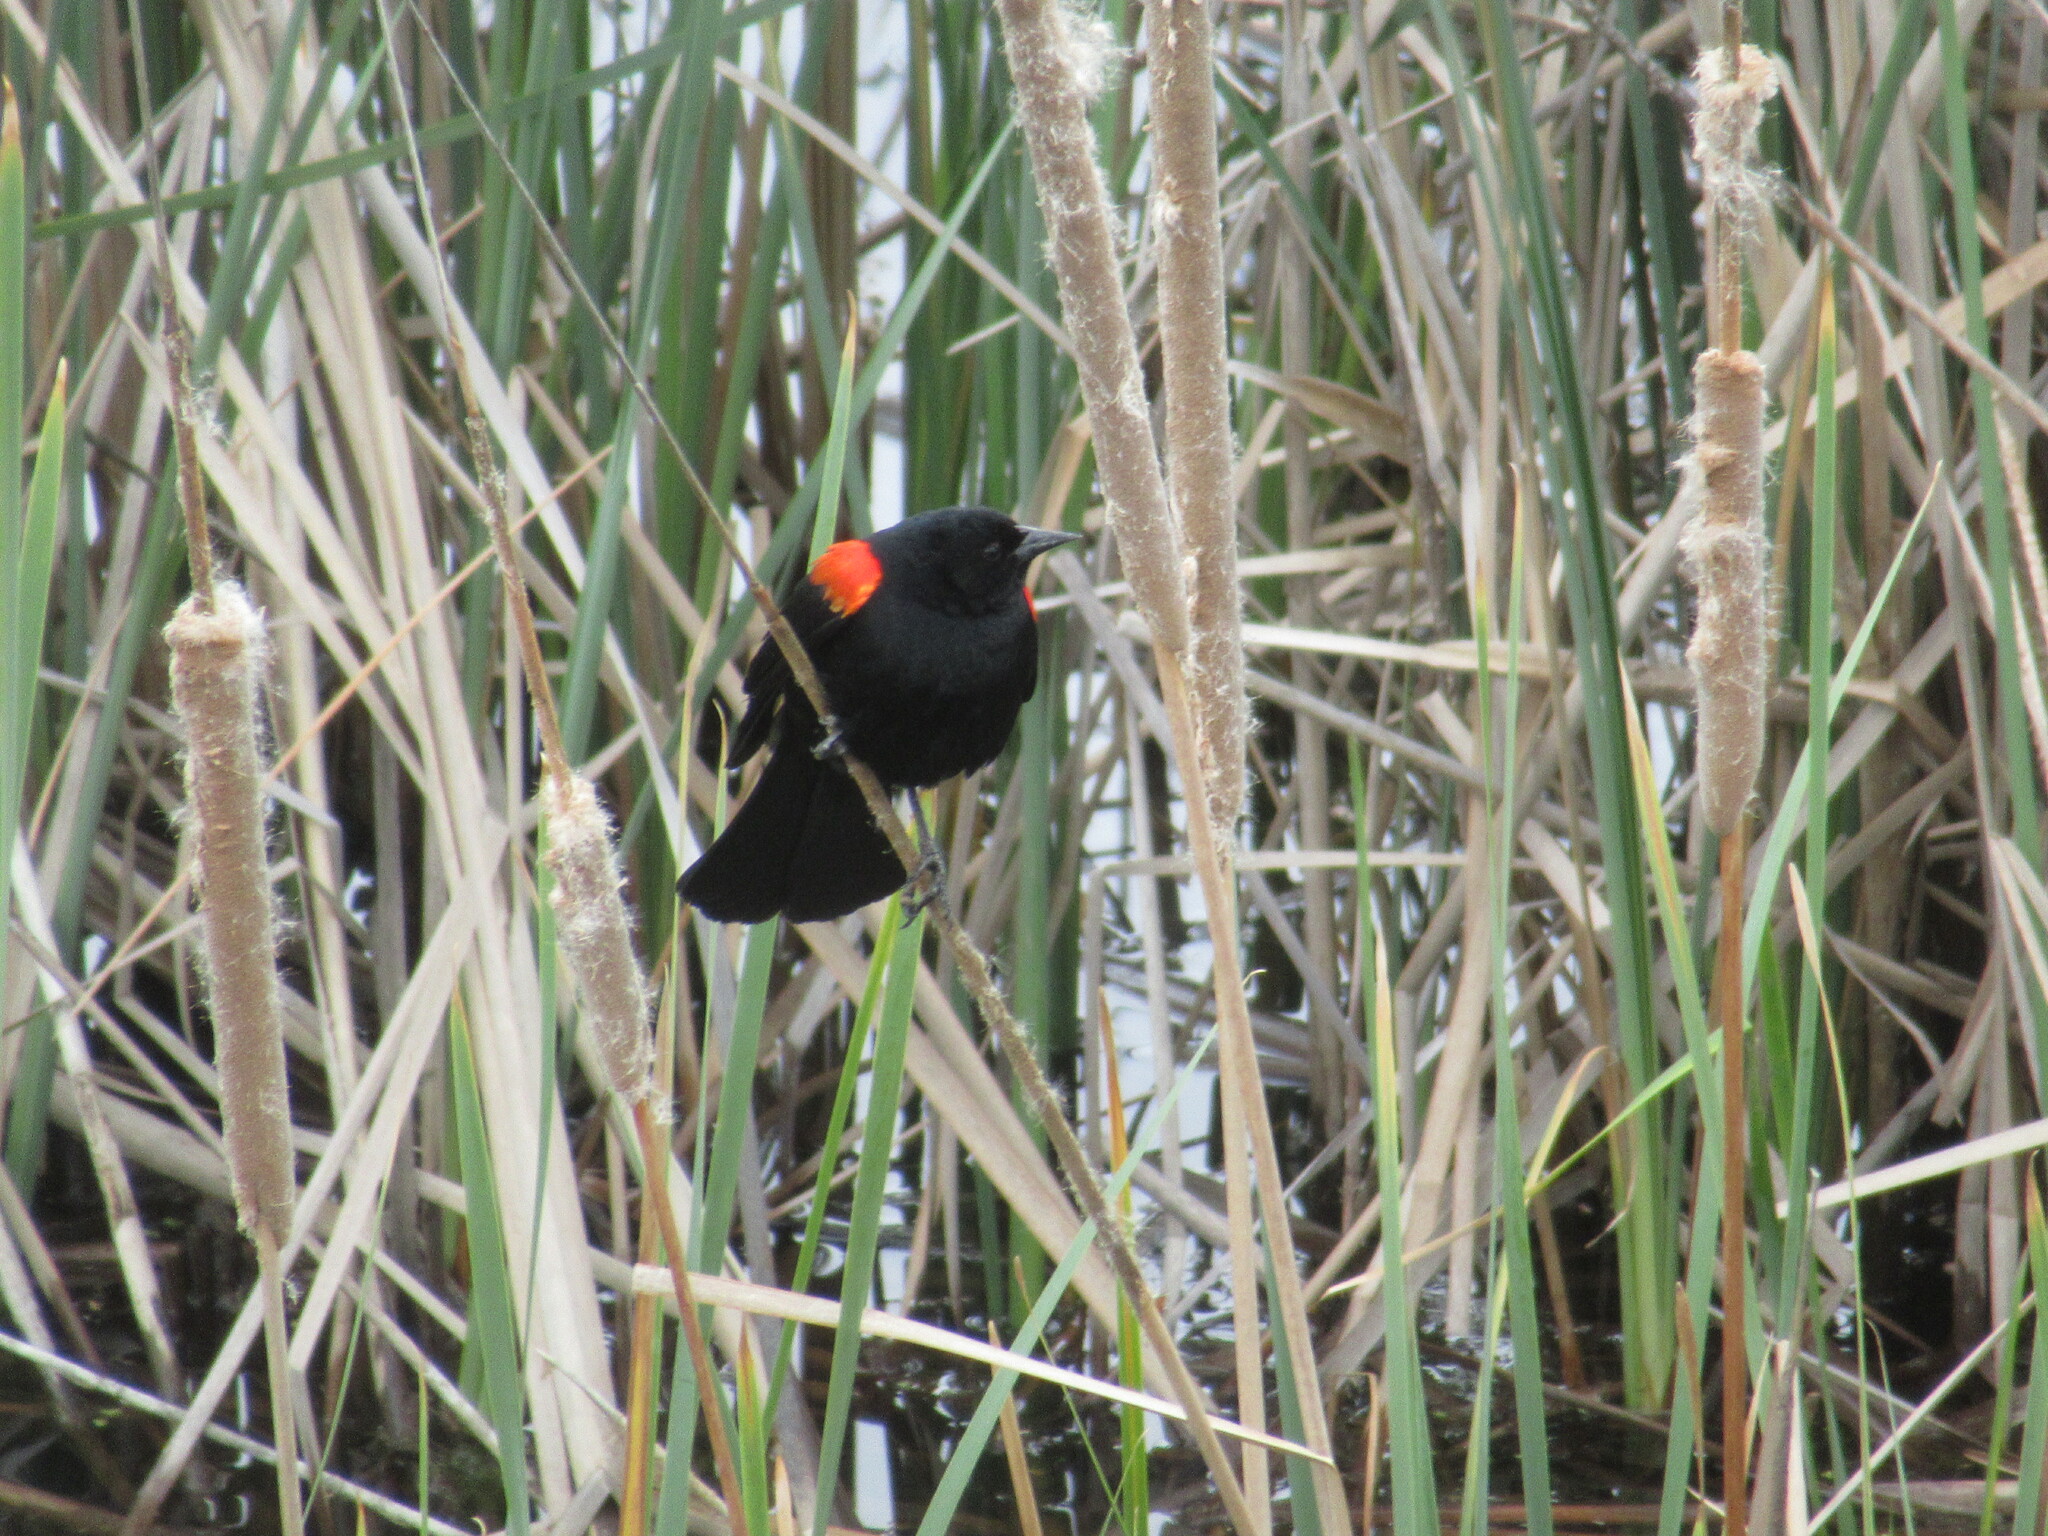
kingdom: Animalia
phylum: Chordata
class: Aves
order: Passeriformes
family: Icteridae
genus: Agelaius
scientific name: Agelaius phoeniceus
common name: Red-winged blackbird
